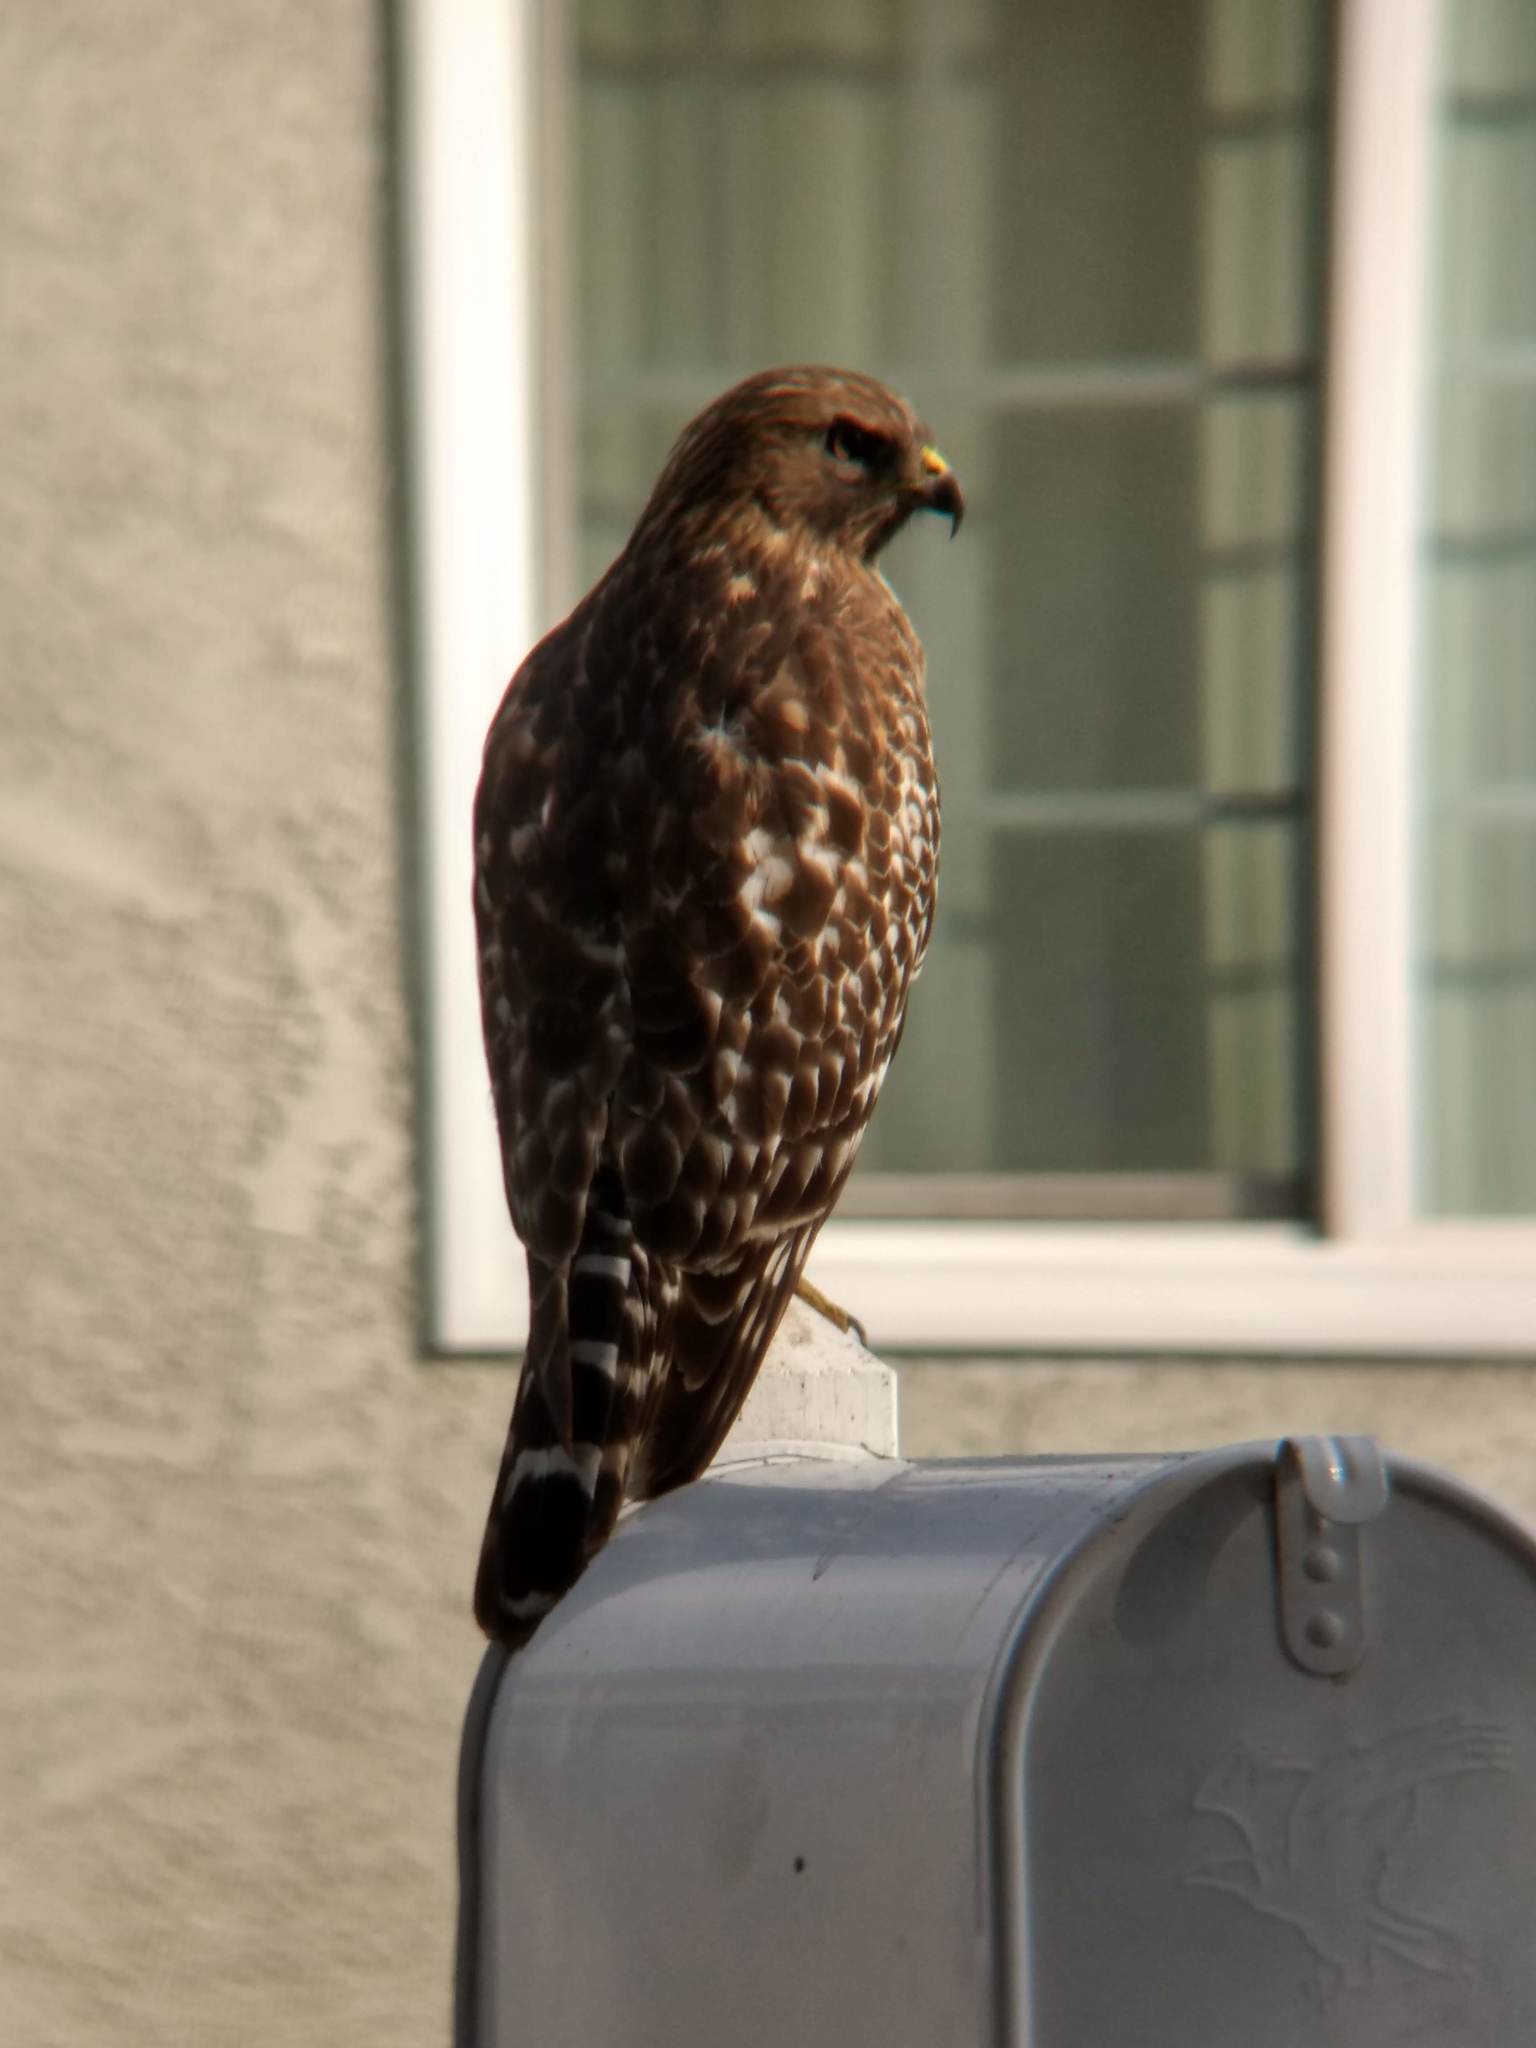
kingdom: Animalia
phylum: Chordata
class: Aves
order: Accipitriformes
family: Accipitridae
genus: Buteo
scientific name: Buteo lineatus
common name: Red-shouldered hawk
